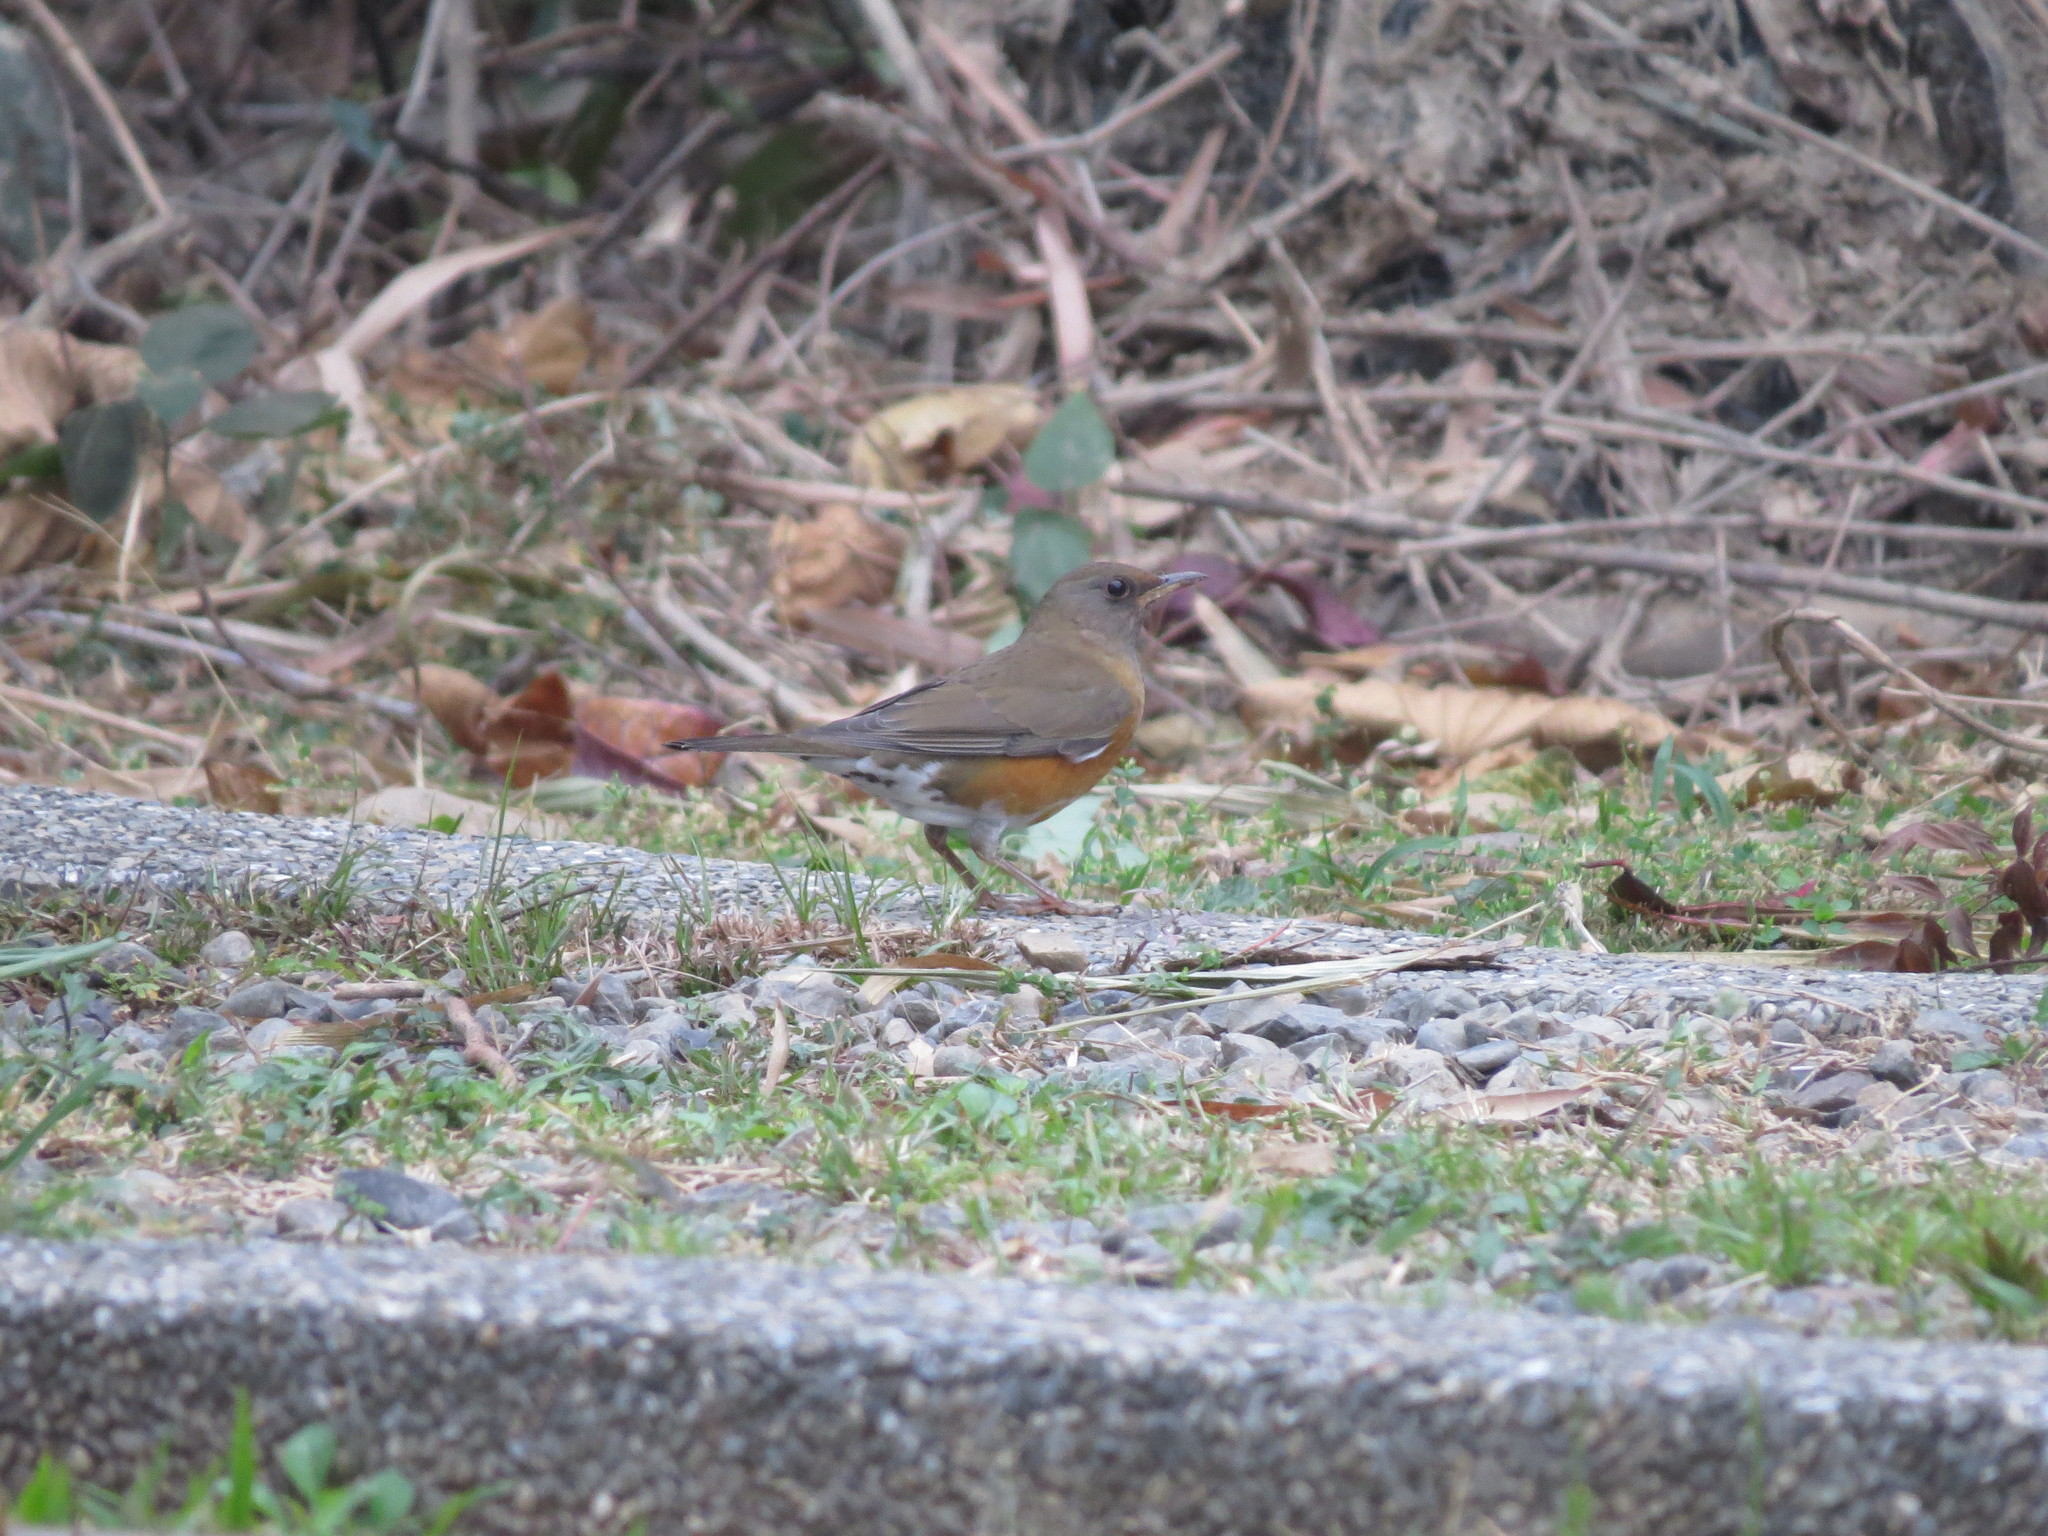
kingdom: Animalia
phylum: Chordata
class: Aves
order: Passeriformes
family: Turdidae
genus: Turdus
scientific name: Turdus chrysolaus
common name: Brown-headed thrush
